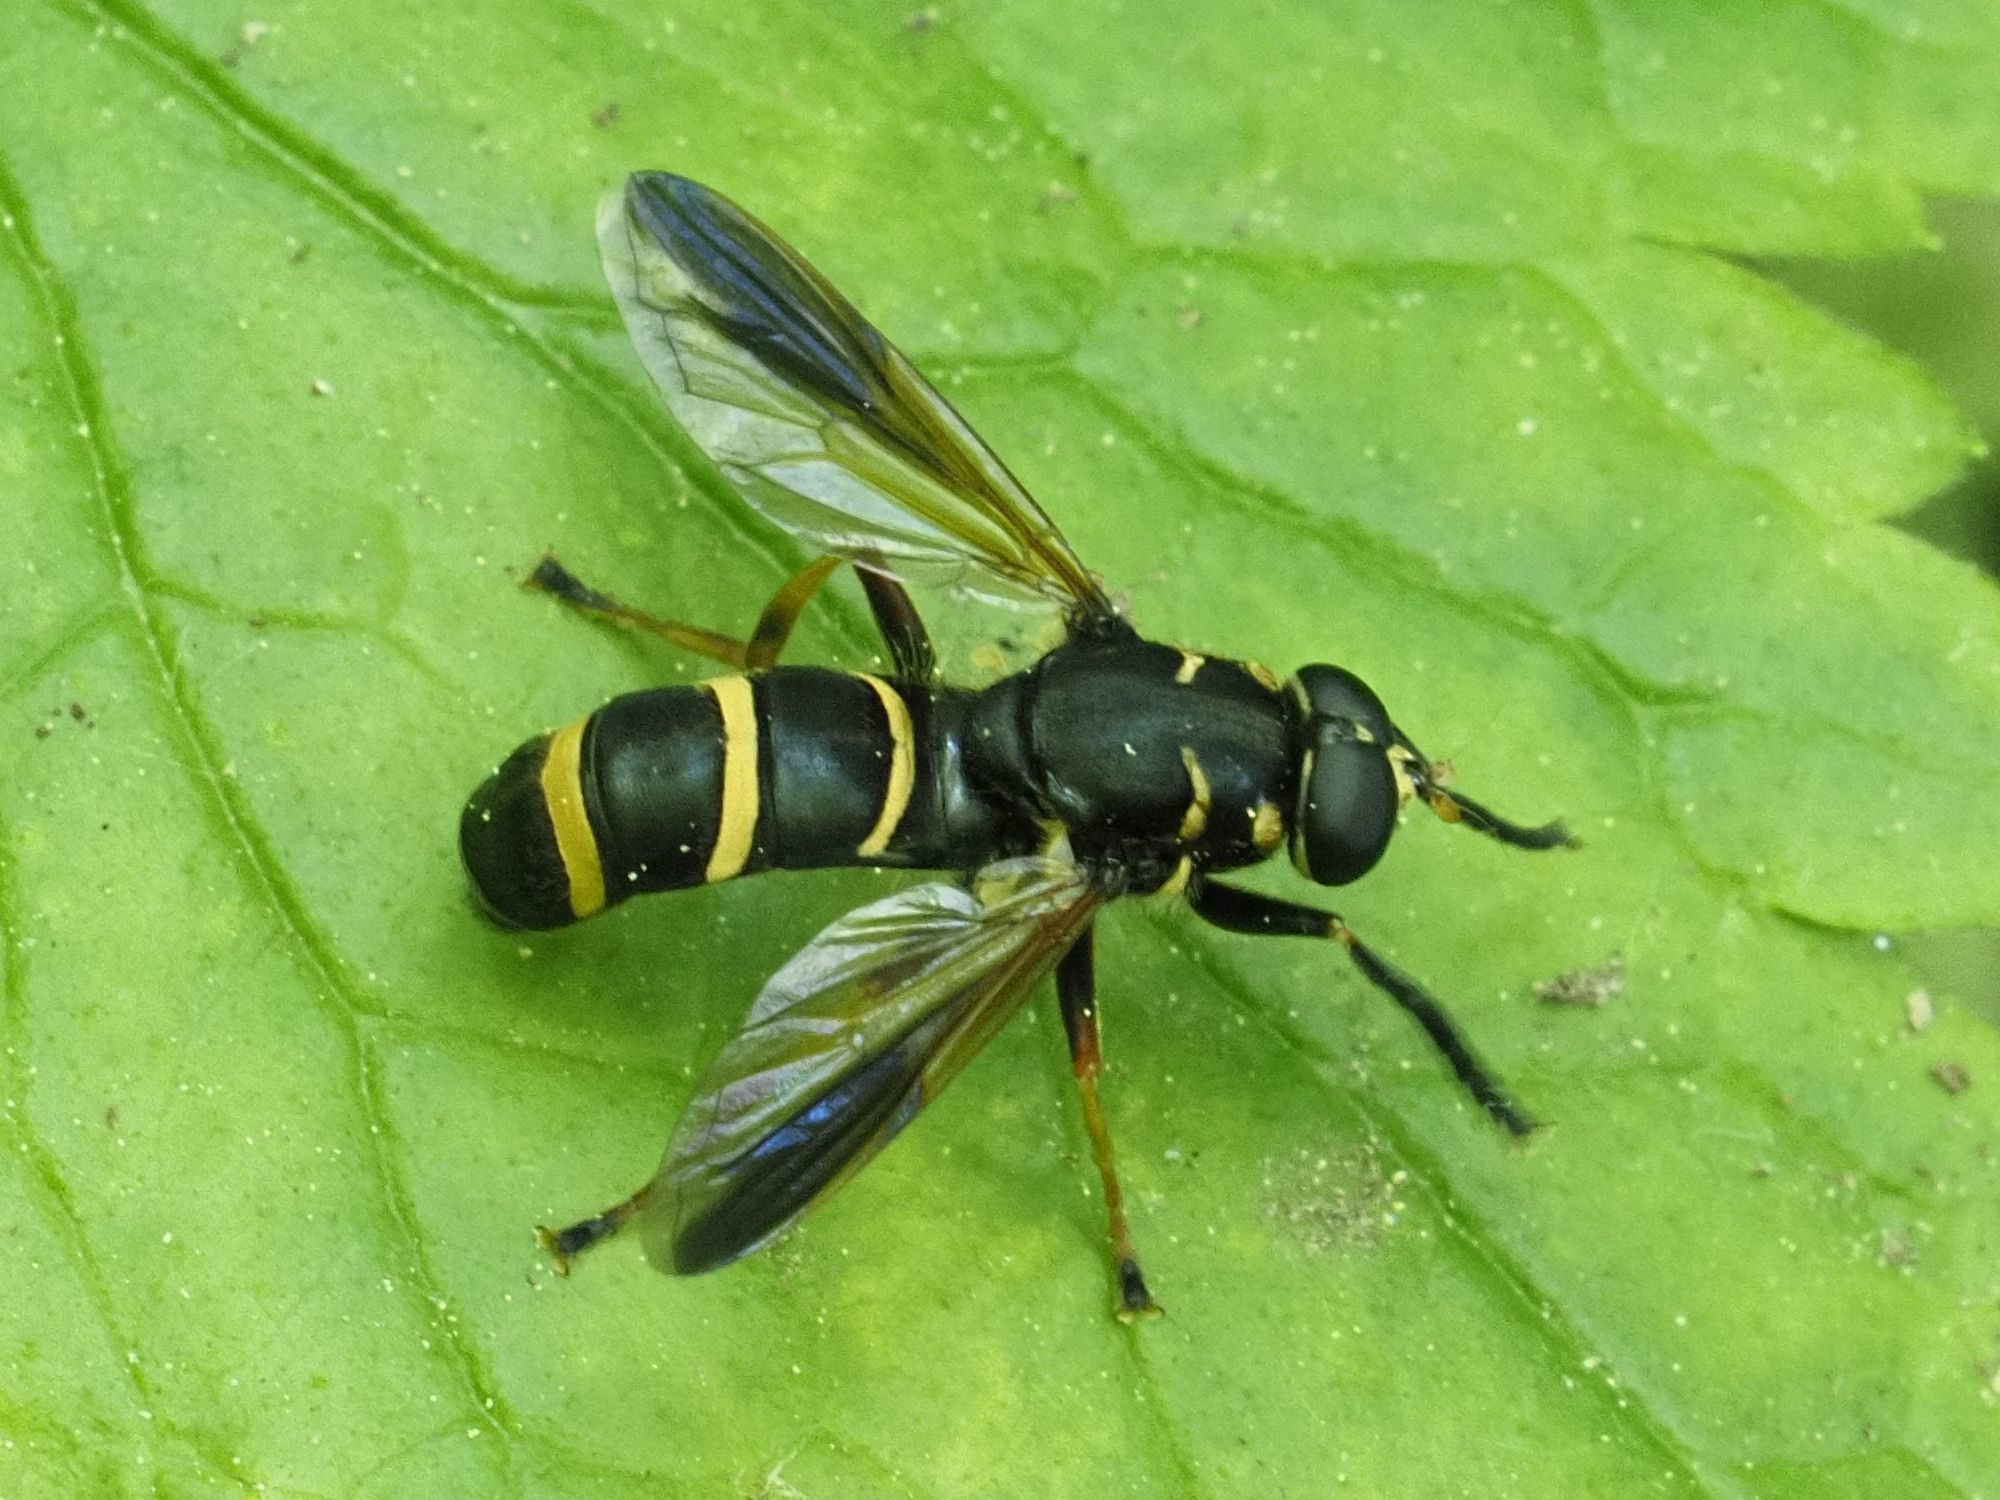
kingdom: Animalia
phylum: Arthropoda
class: Insecta
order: Diptera
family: Syrphidae
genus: Temnostoma
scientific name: Temnostoma bombylans
